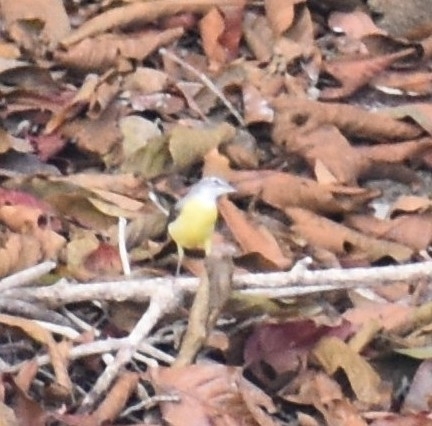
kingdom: Animalia
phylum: Chordata
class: Aves
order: Passeriformes
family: Motacillidae
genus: Motacilla
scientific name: Motacilla cinerea
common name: Grey wagtail
